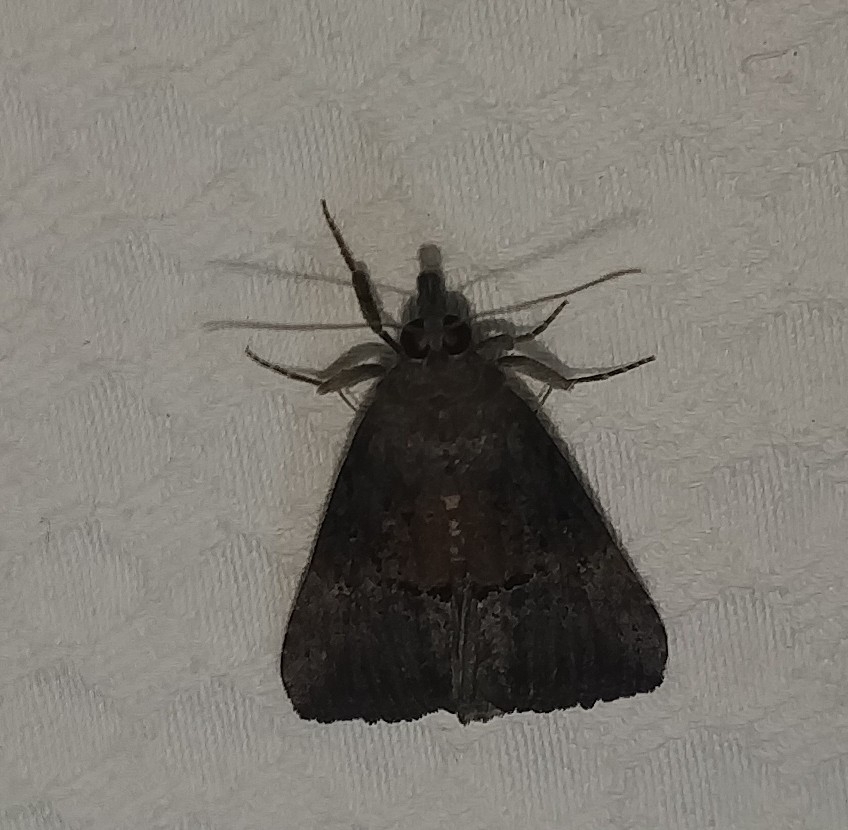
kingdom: Animalia
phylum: Arthropoda
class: Insecta
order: Lepidoptera
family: Erebidae
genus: Hypena
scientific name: Hypena scabra
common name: Green cloverworm
